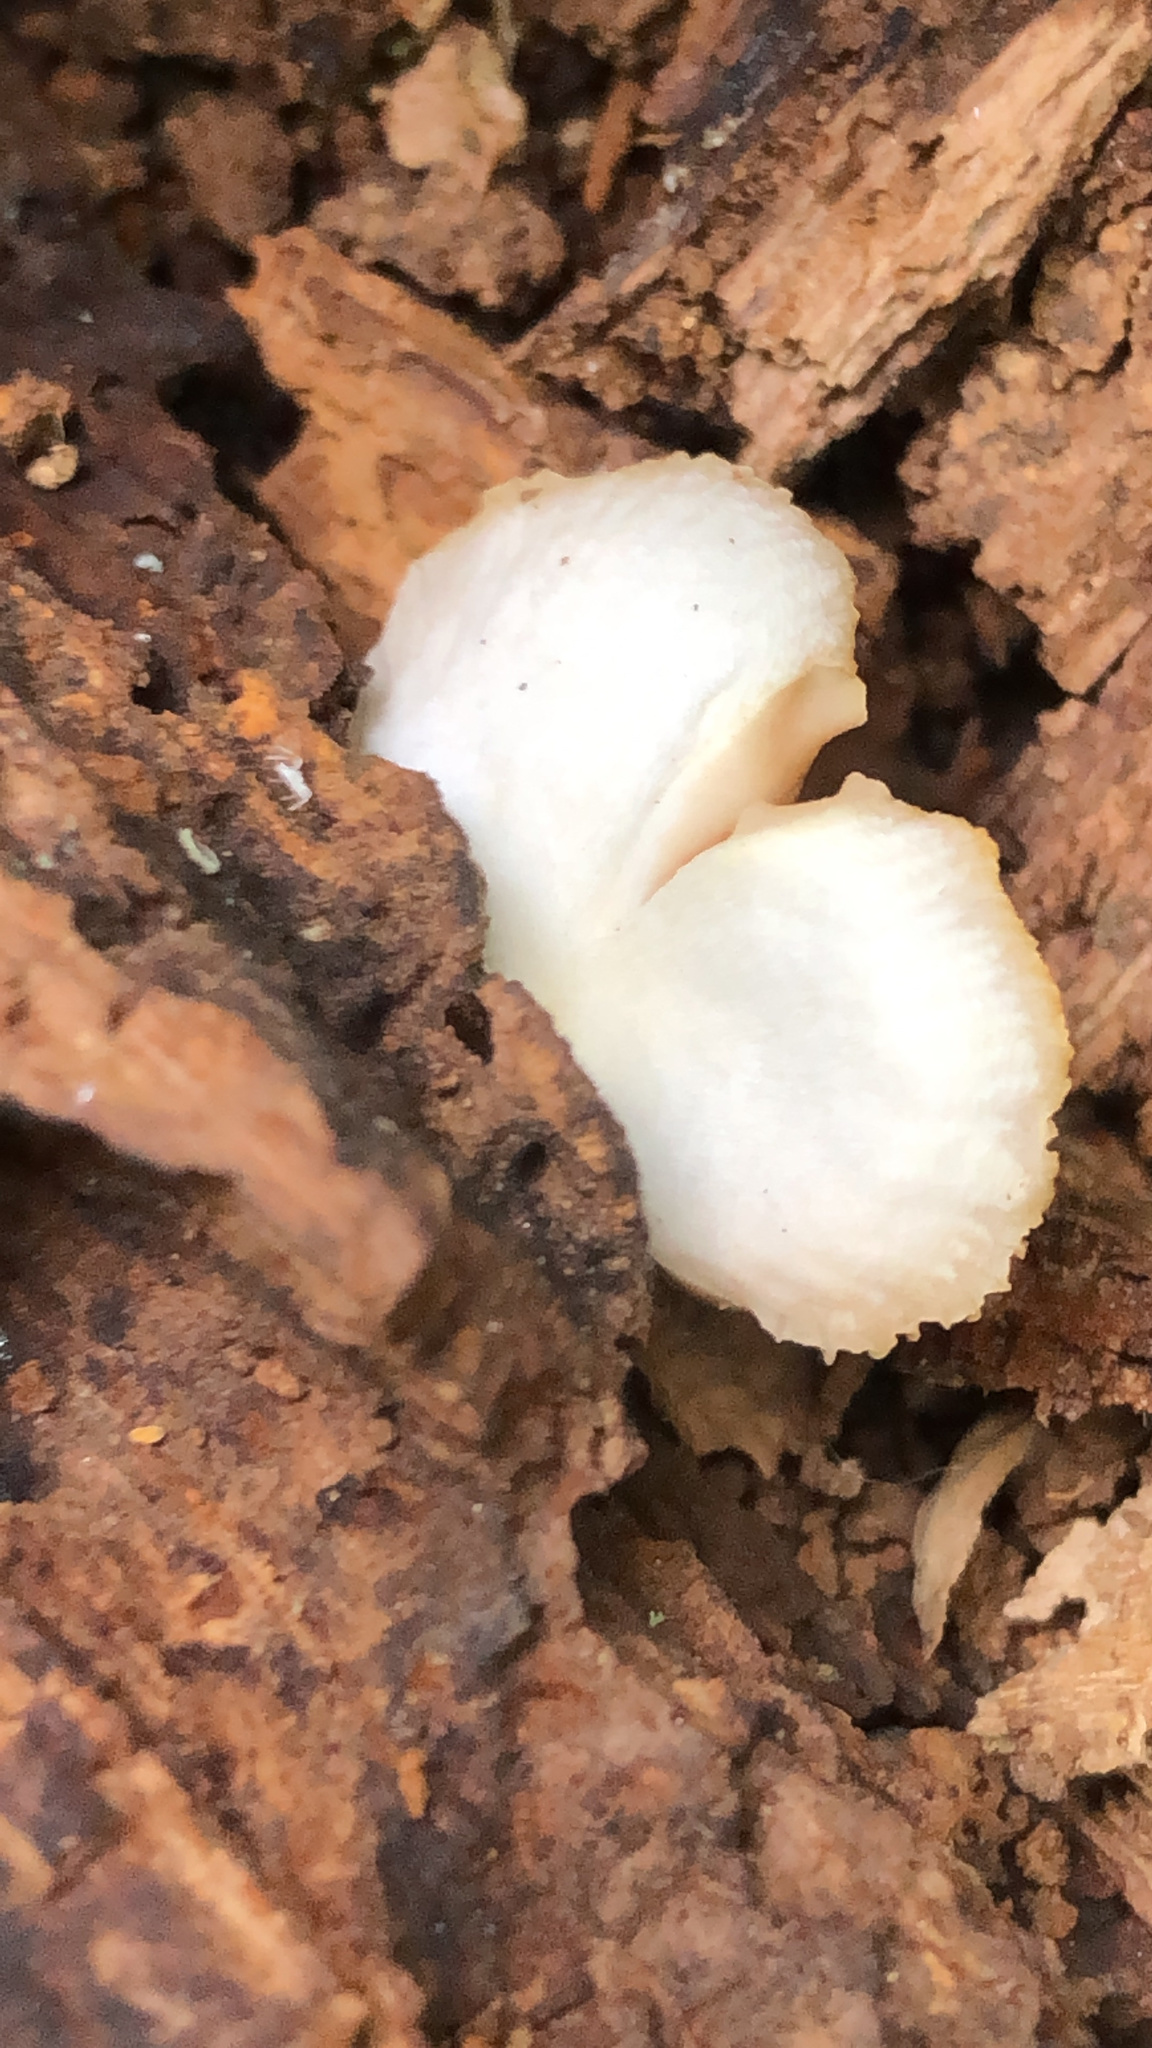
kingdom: Fungi
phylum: Basidiomycota
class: Agaricomycetes
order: Agaricales
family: Crepidotaceae
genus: Crepidotus
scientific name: Crepidotus applanatus
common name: Flat crep
